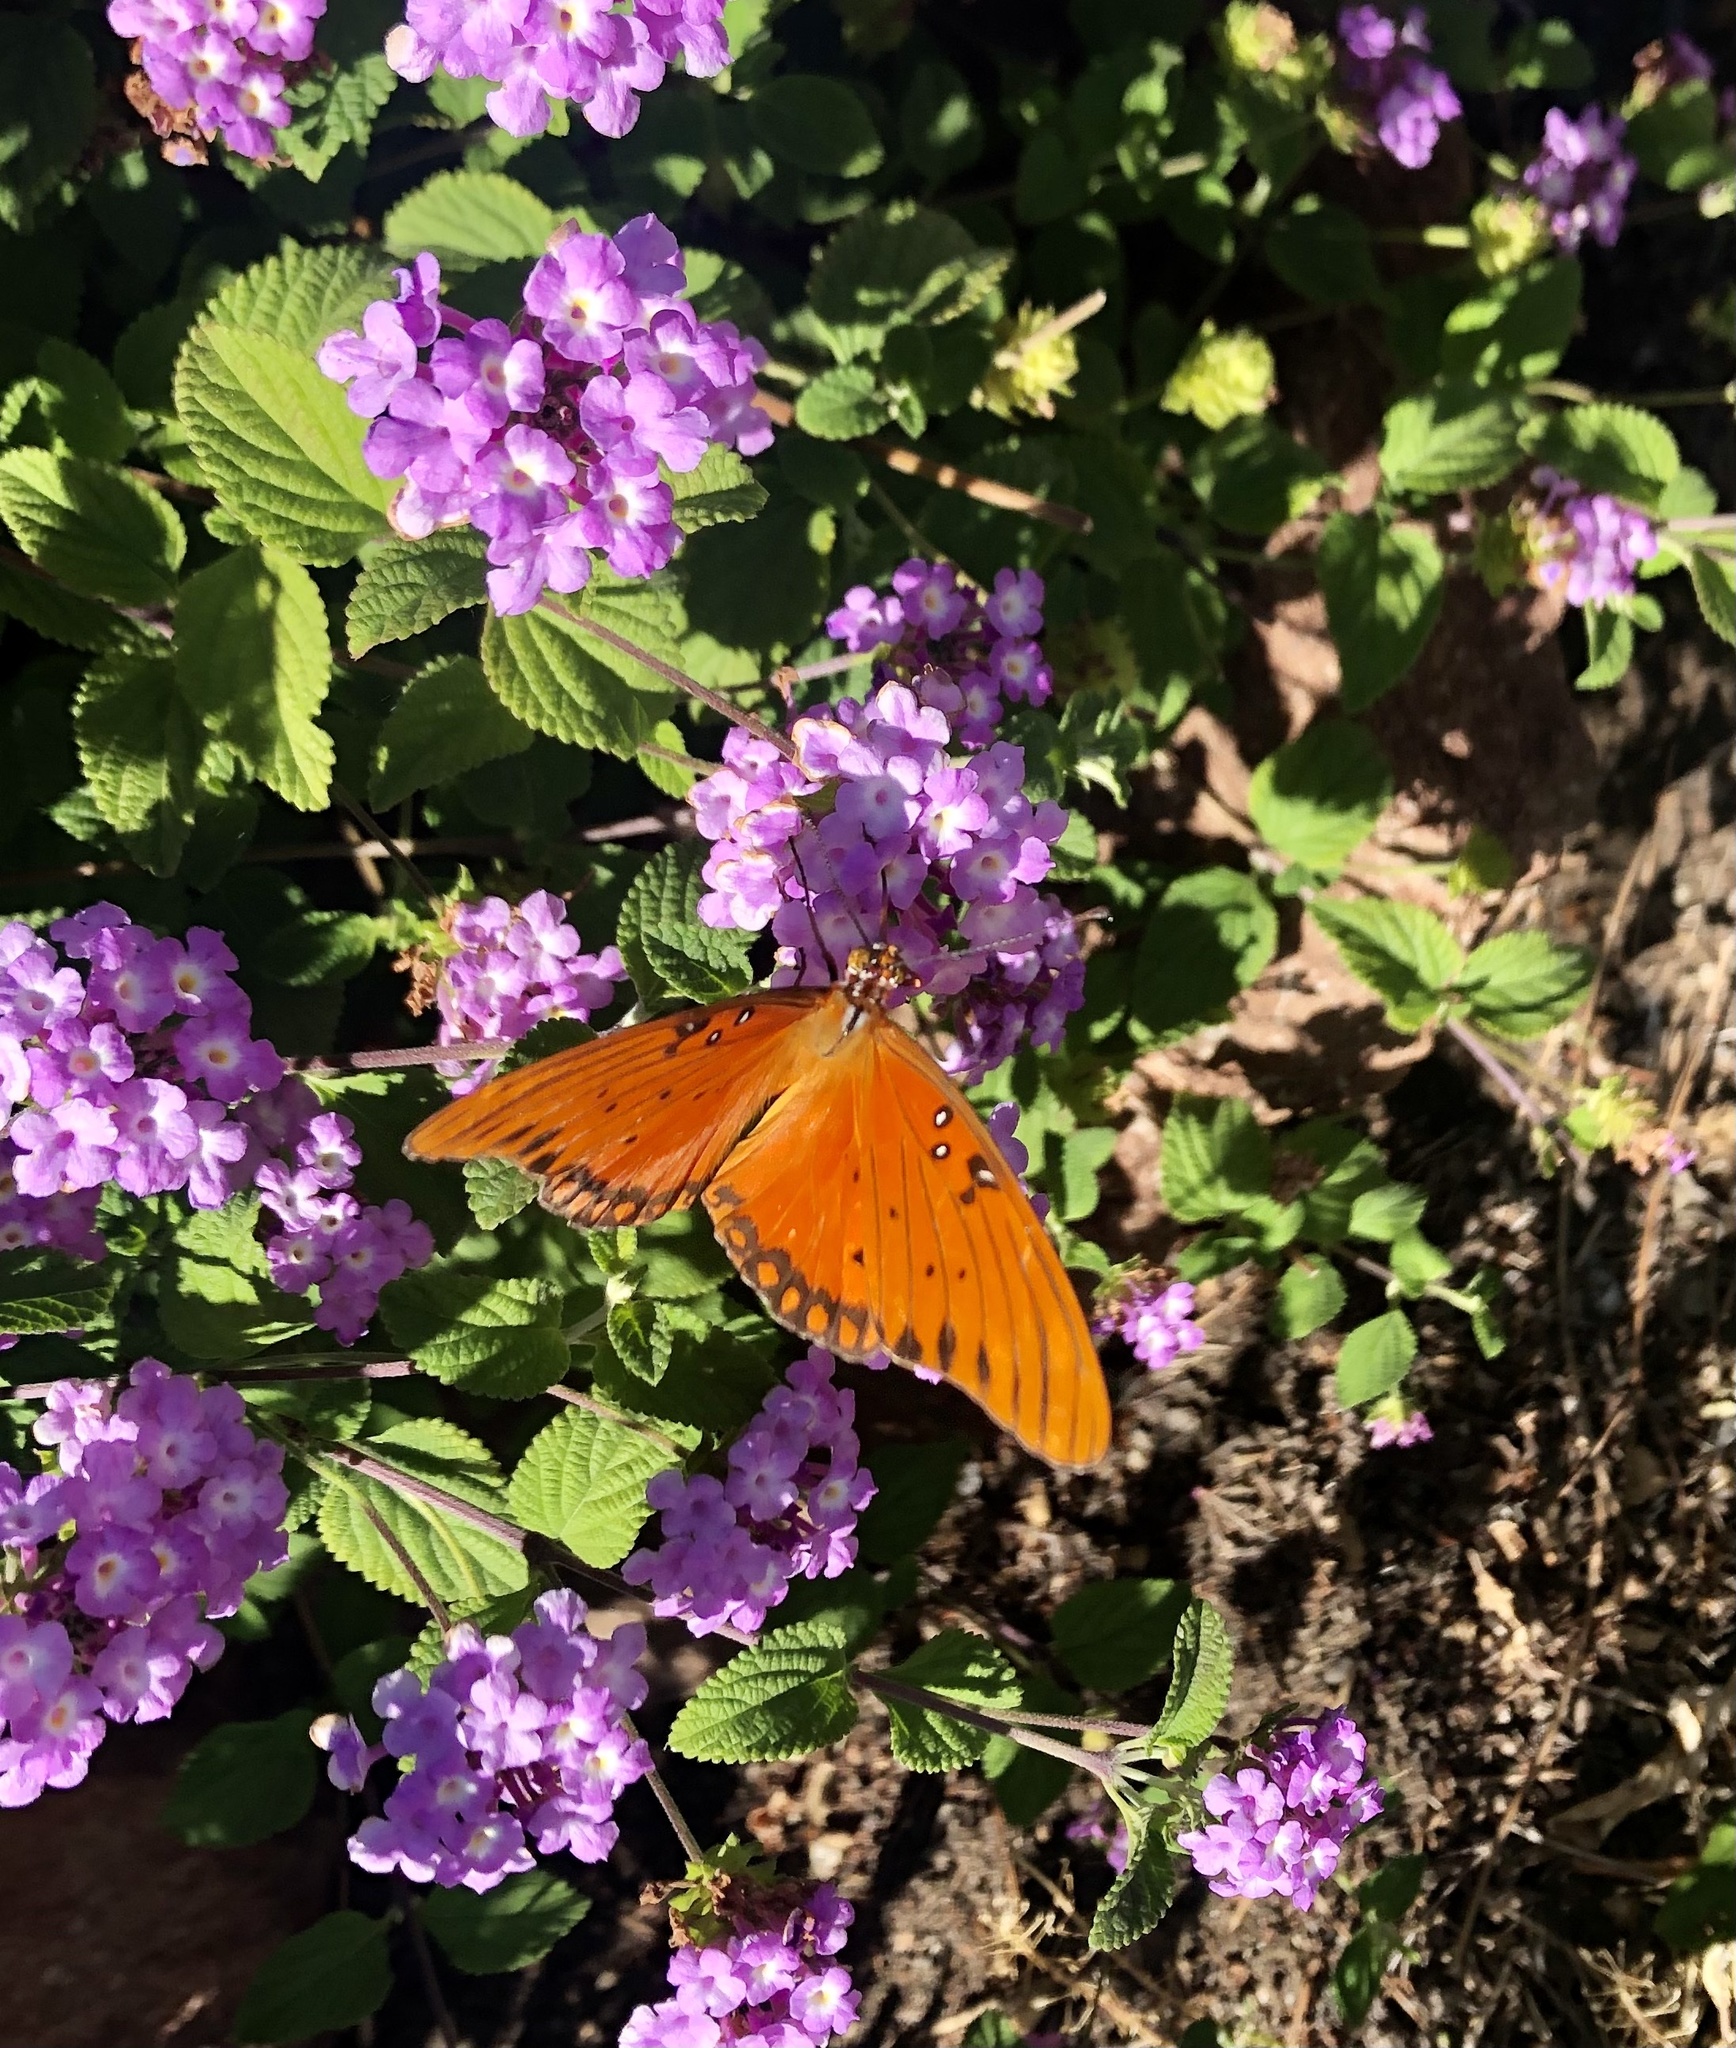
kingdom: Animalia
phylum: Arthropoda
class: Insecta
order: Lepidoptera
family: Nymphalidae
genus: Dione
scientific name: Dione vanillae
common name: Gulf fritillary
